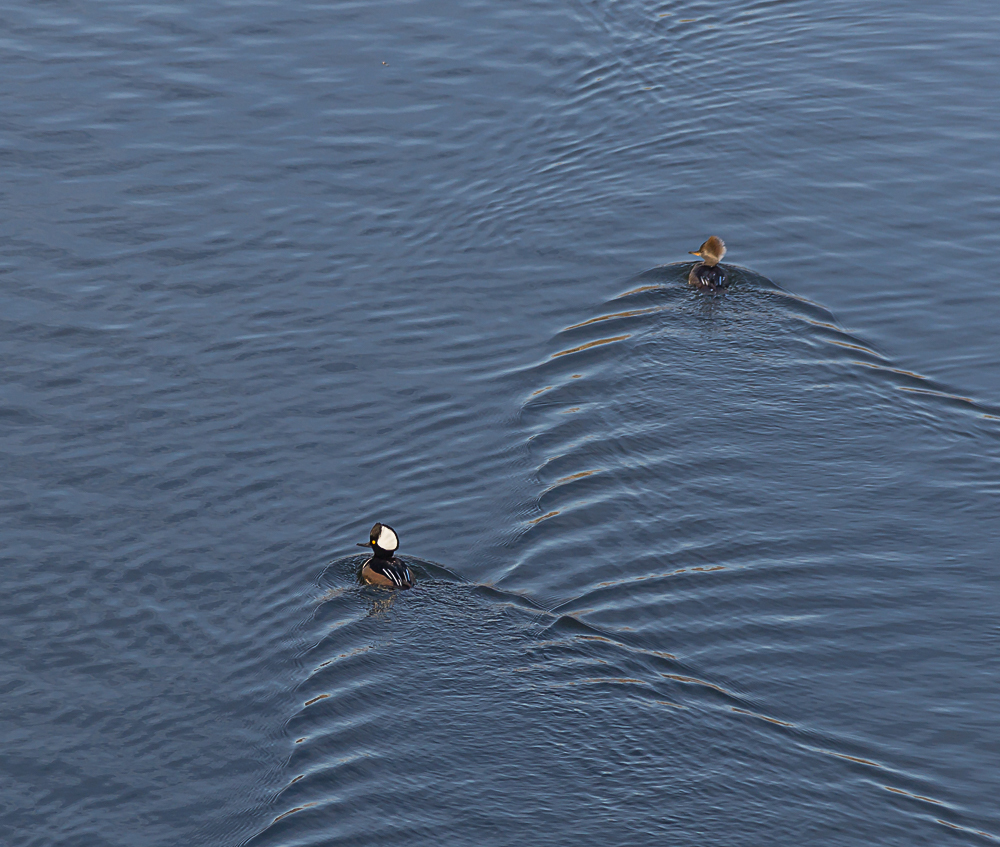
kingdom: Animalia
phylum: Chordata
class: Aves
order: Anseriformes
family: Anatidae
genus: Lophodytes
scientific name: Lophodytes cucullatus
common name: Hooded merganser
